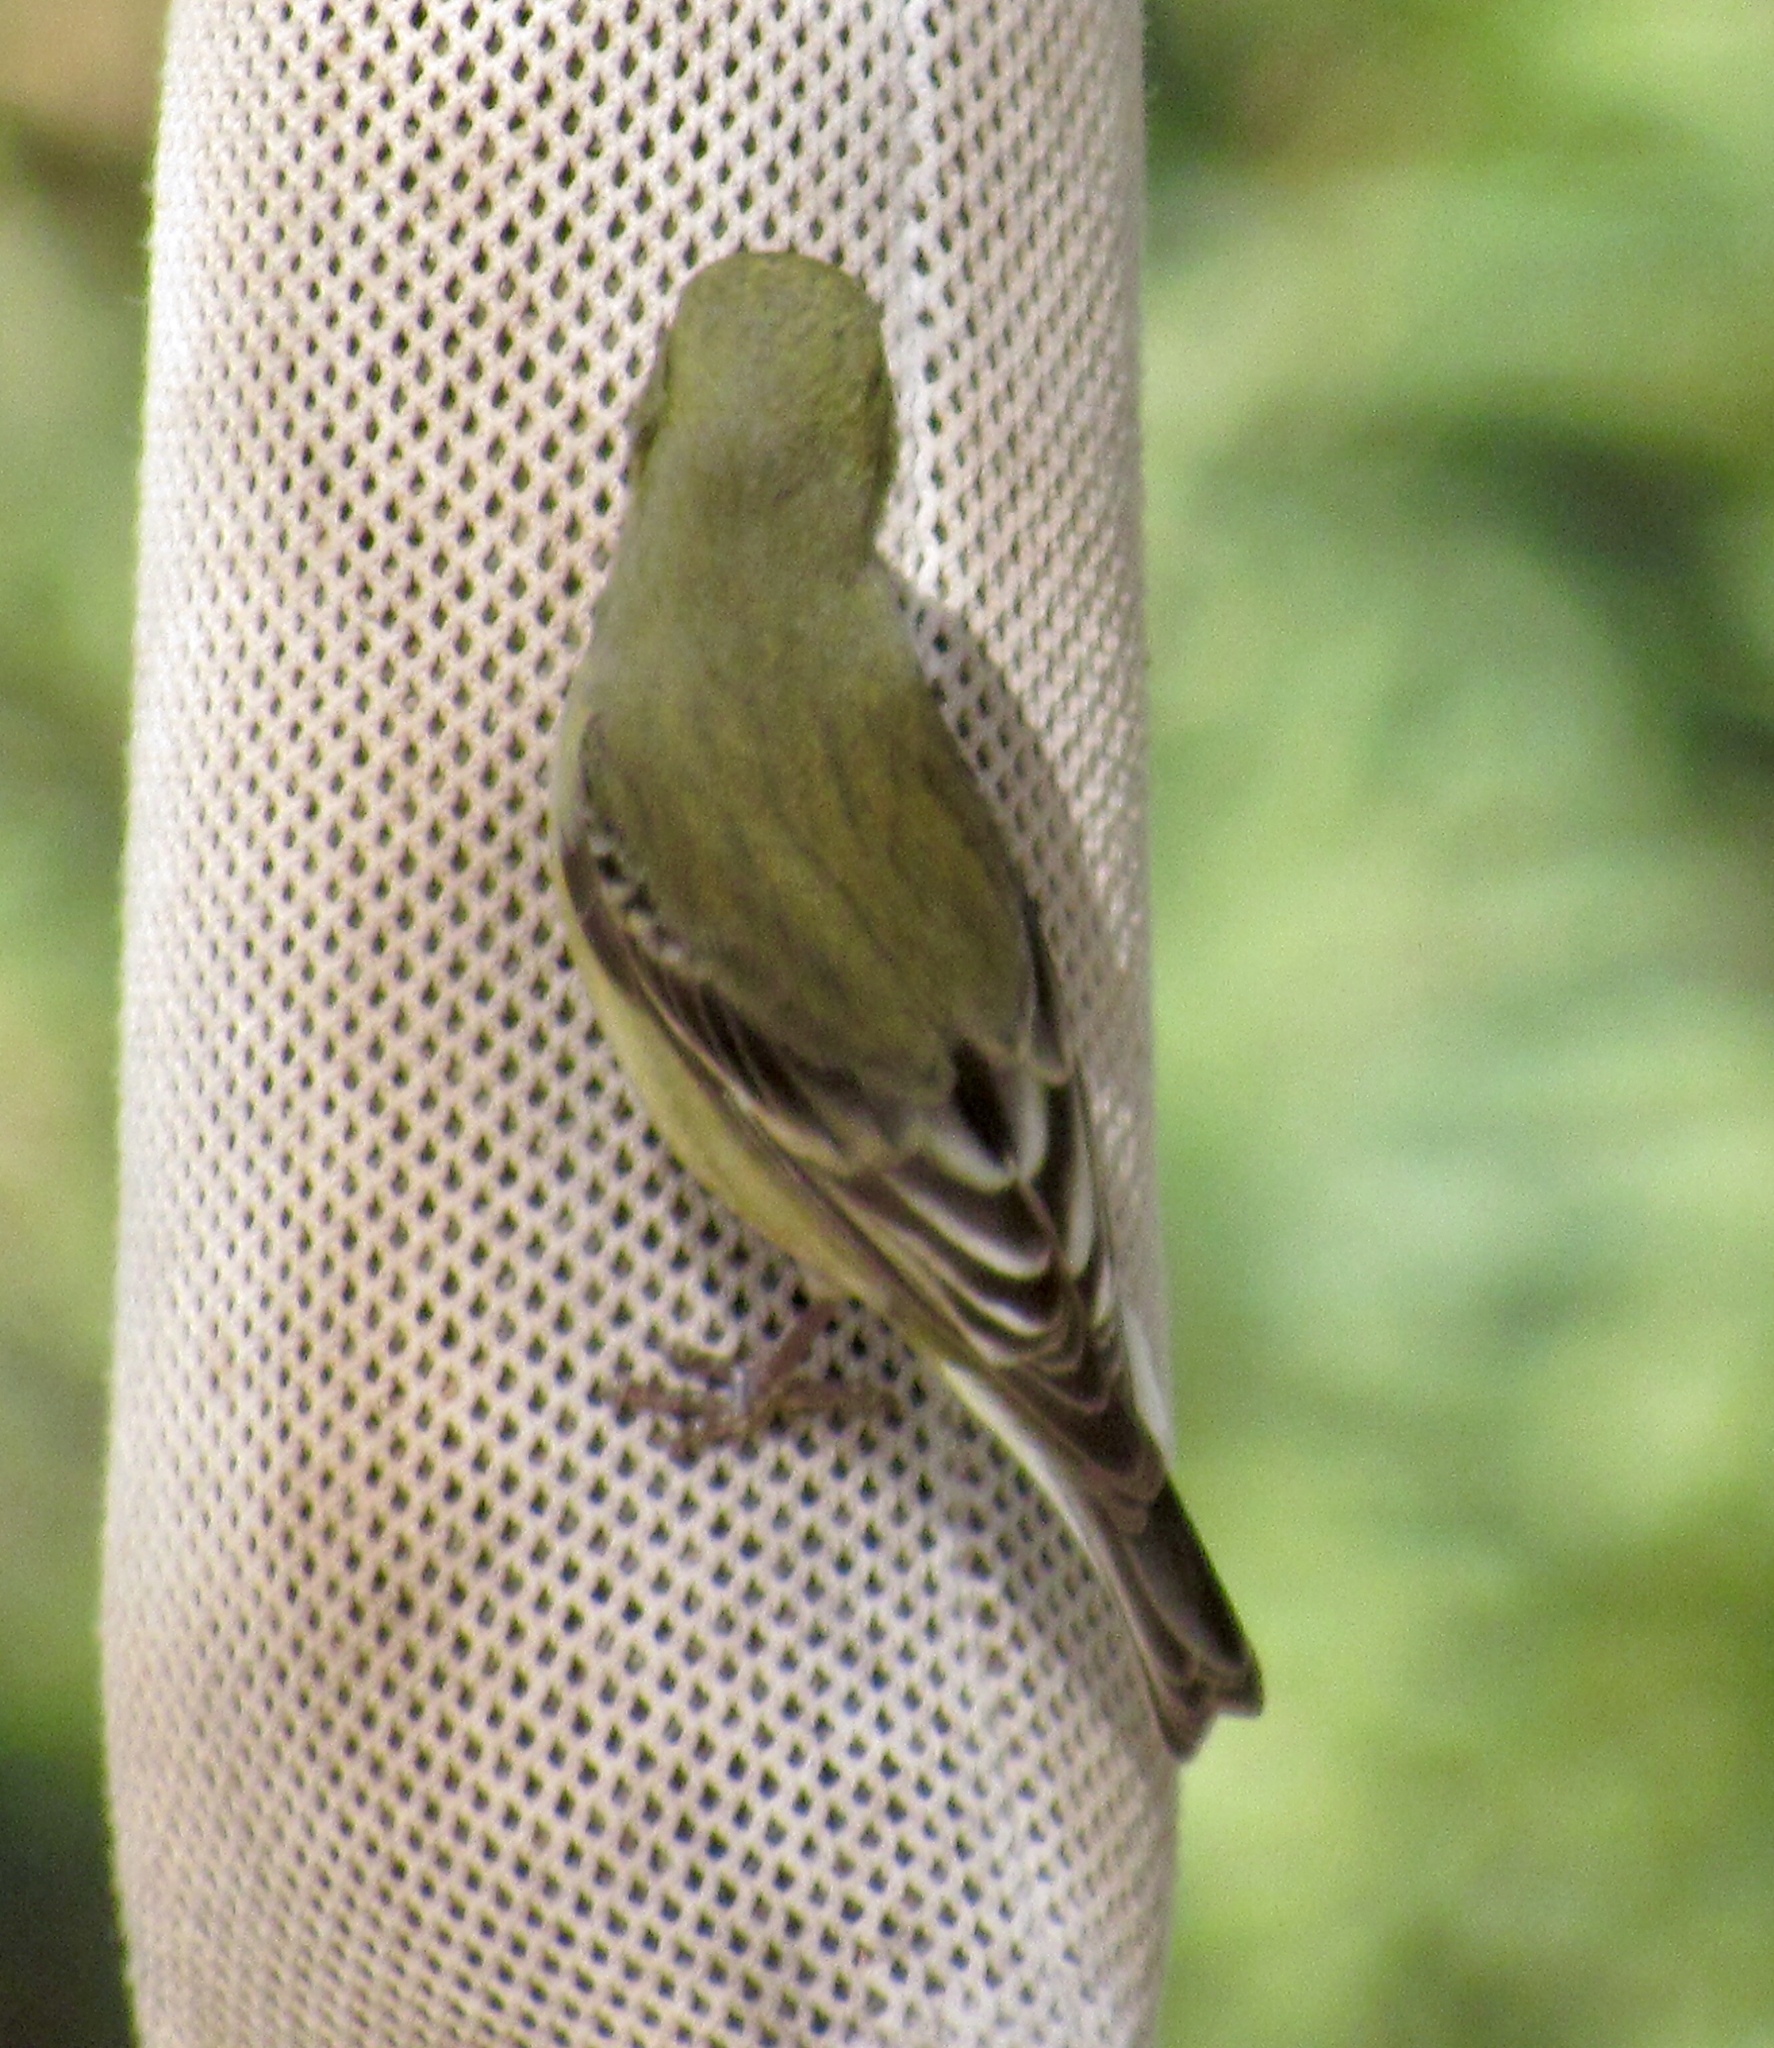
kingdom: Animalia
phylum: Chordata
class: Aves
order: Passeriformes
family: Fringillidae
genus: Spinus
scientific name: Spinus psaltria
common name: Lesser goldfinch
